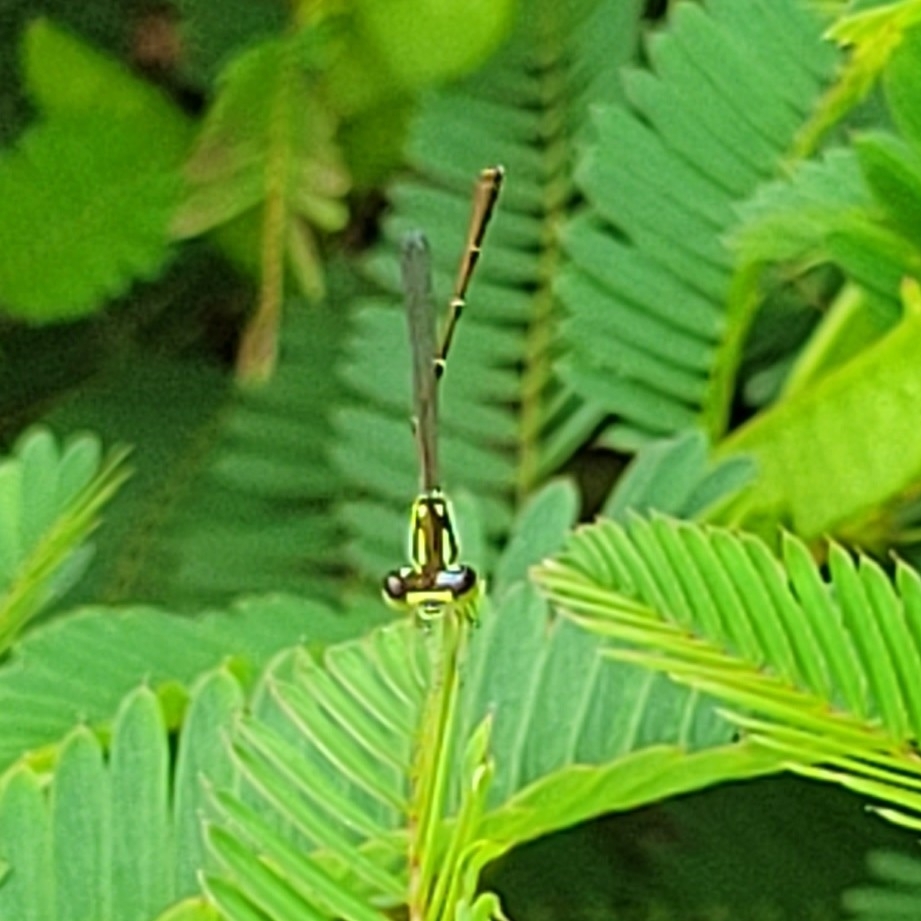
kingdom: Animalia
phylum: Arthropoda
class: Insecta
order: Odonata
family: Coenagrionidae
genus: Ischnura
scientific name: Ischnura posita
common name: Fragile forktail
